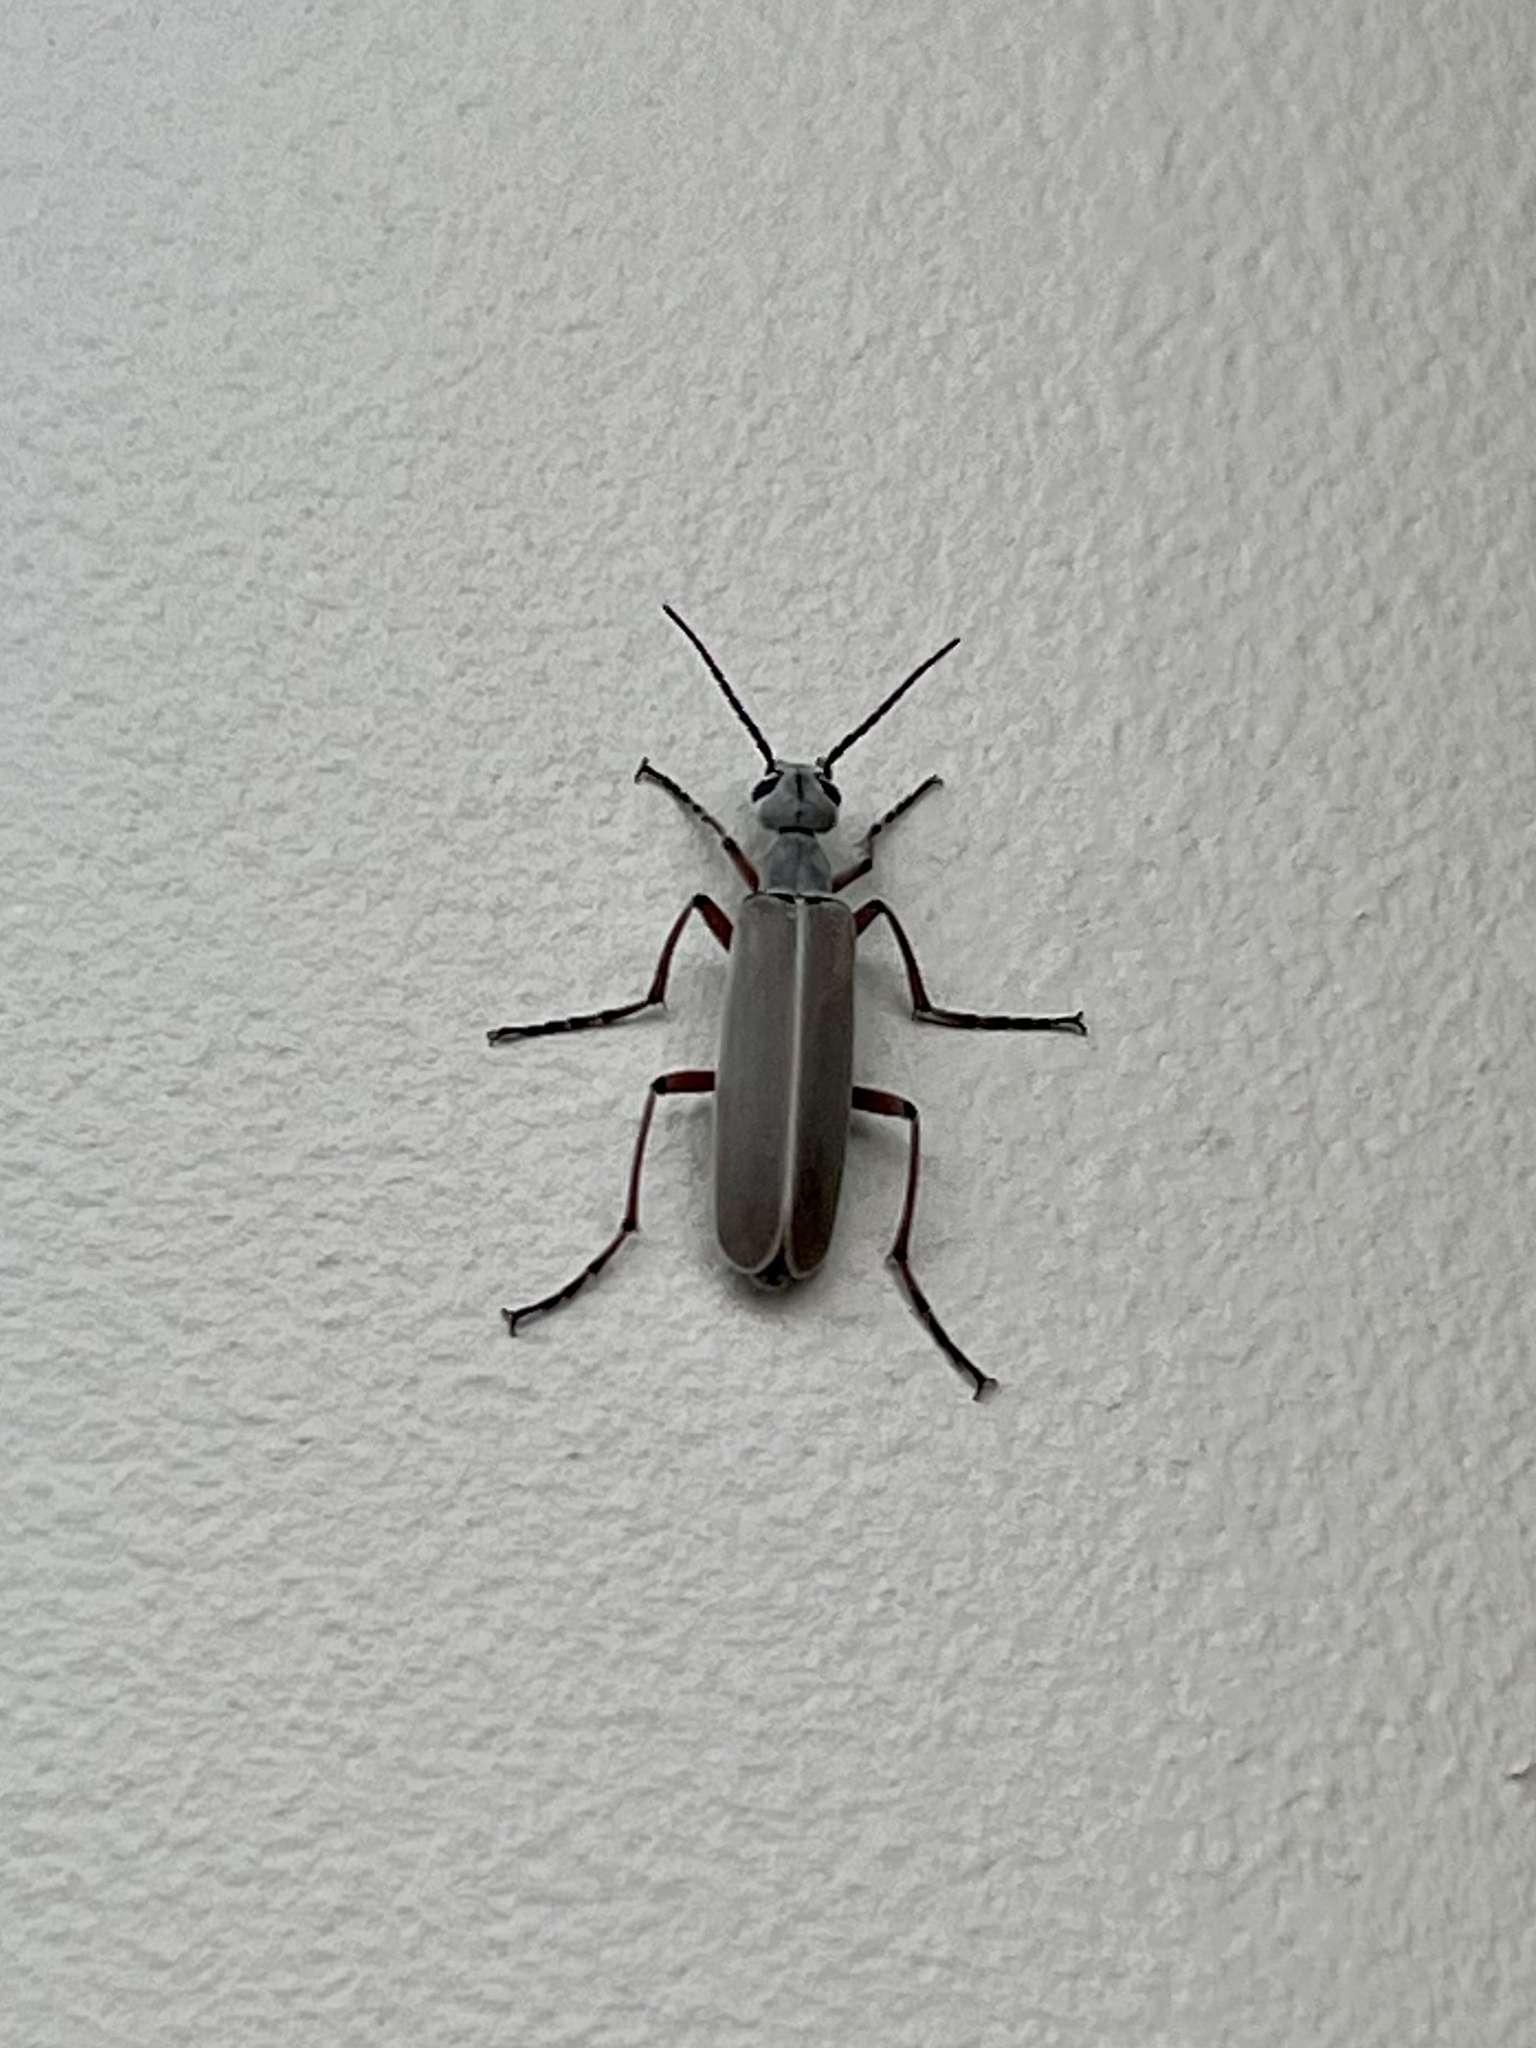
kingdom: Animalia
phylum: Arthropoda
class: Insecta
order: Coleoptera
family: Meloidae
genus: Epicauta
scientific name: Epicauta liebecki
